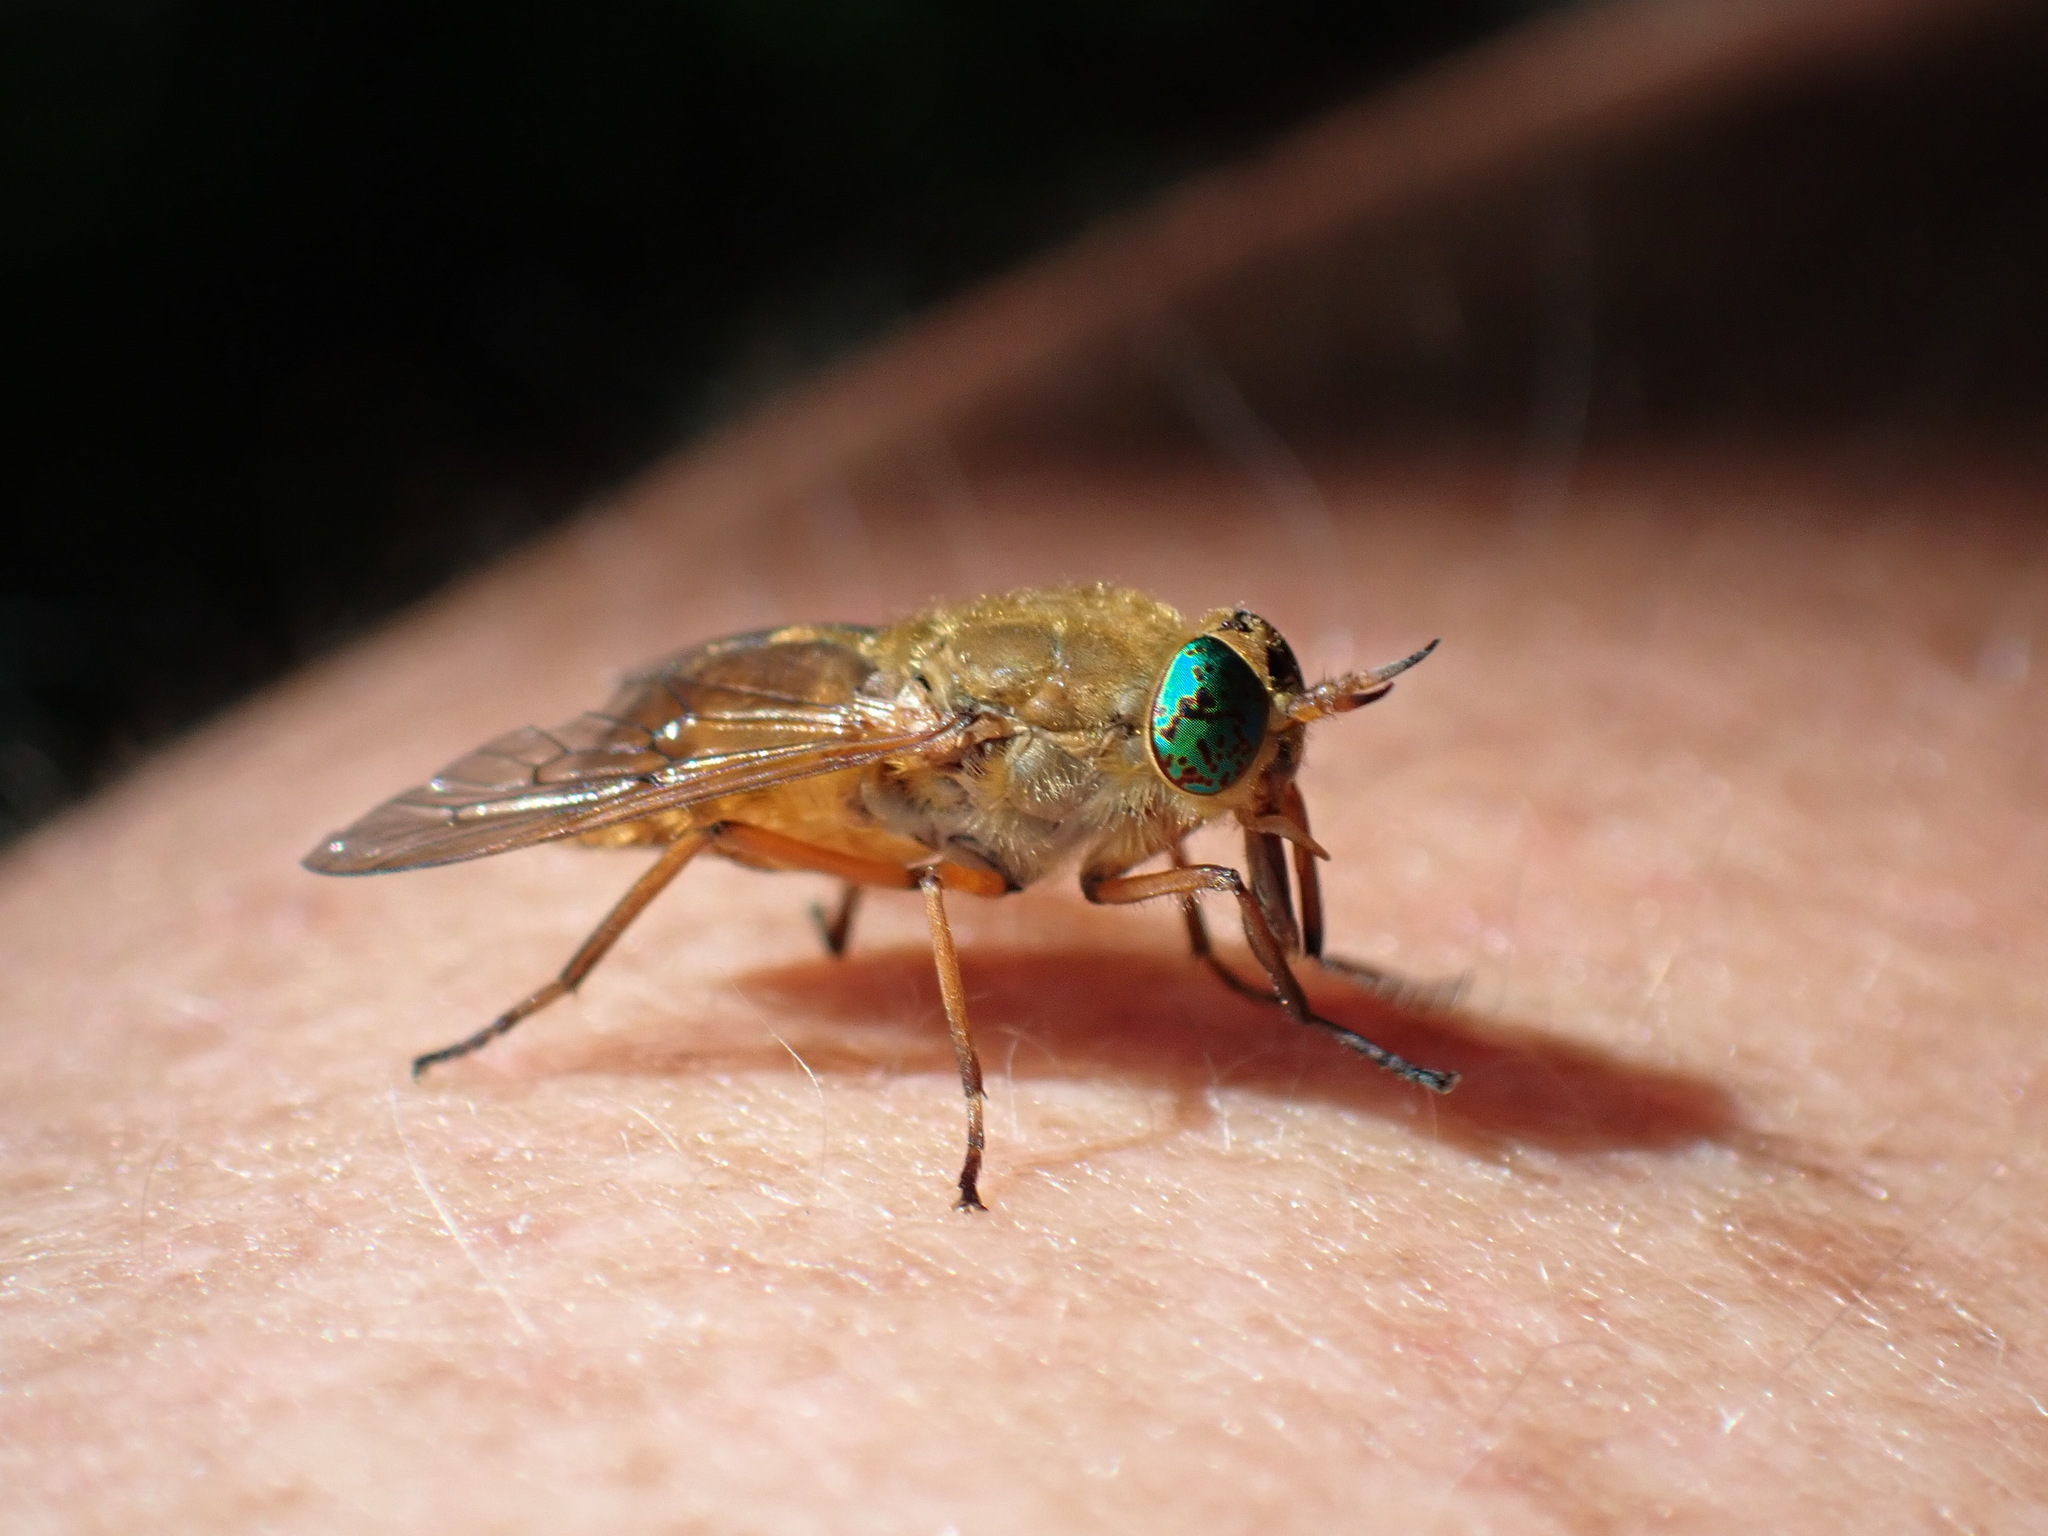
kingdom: Animalia
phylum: Arthropoda
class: Insecta
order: Diptera
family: Tabanidae
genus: Silvius
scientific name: Silvius gigantulus
